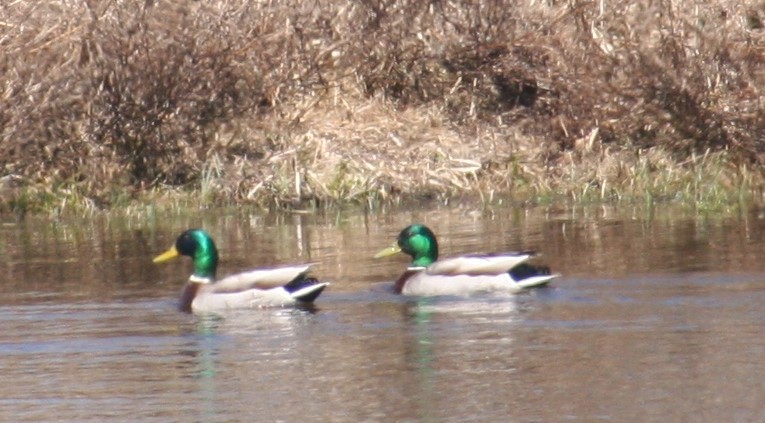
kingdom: Animalia
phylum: Chordata
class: Aves
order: Anseriformes
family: Anatidae
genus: Anas
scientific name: Anas platyrhynchos
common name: Mallard
